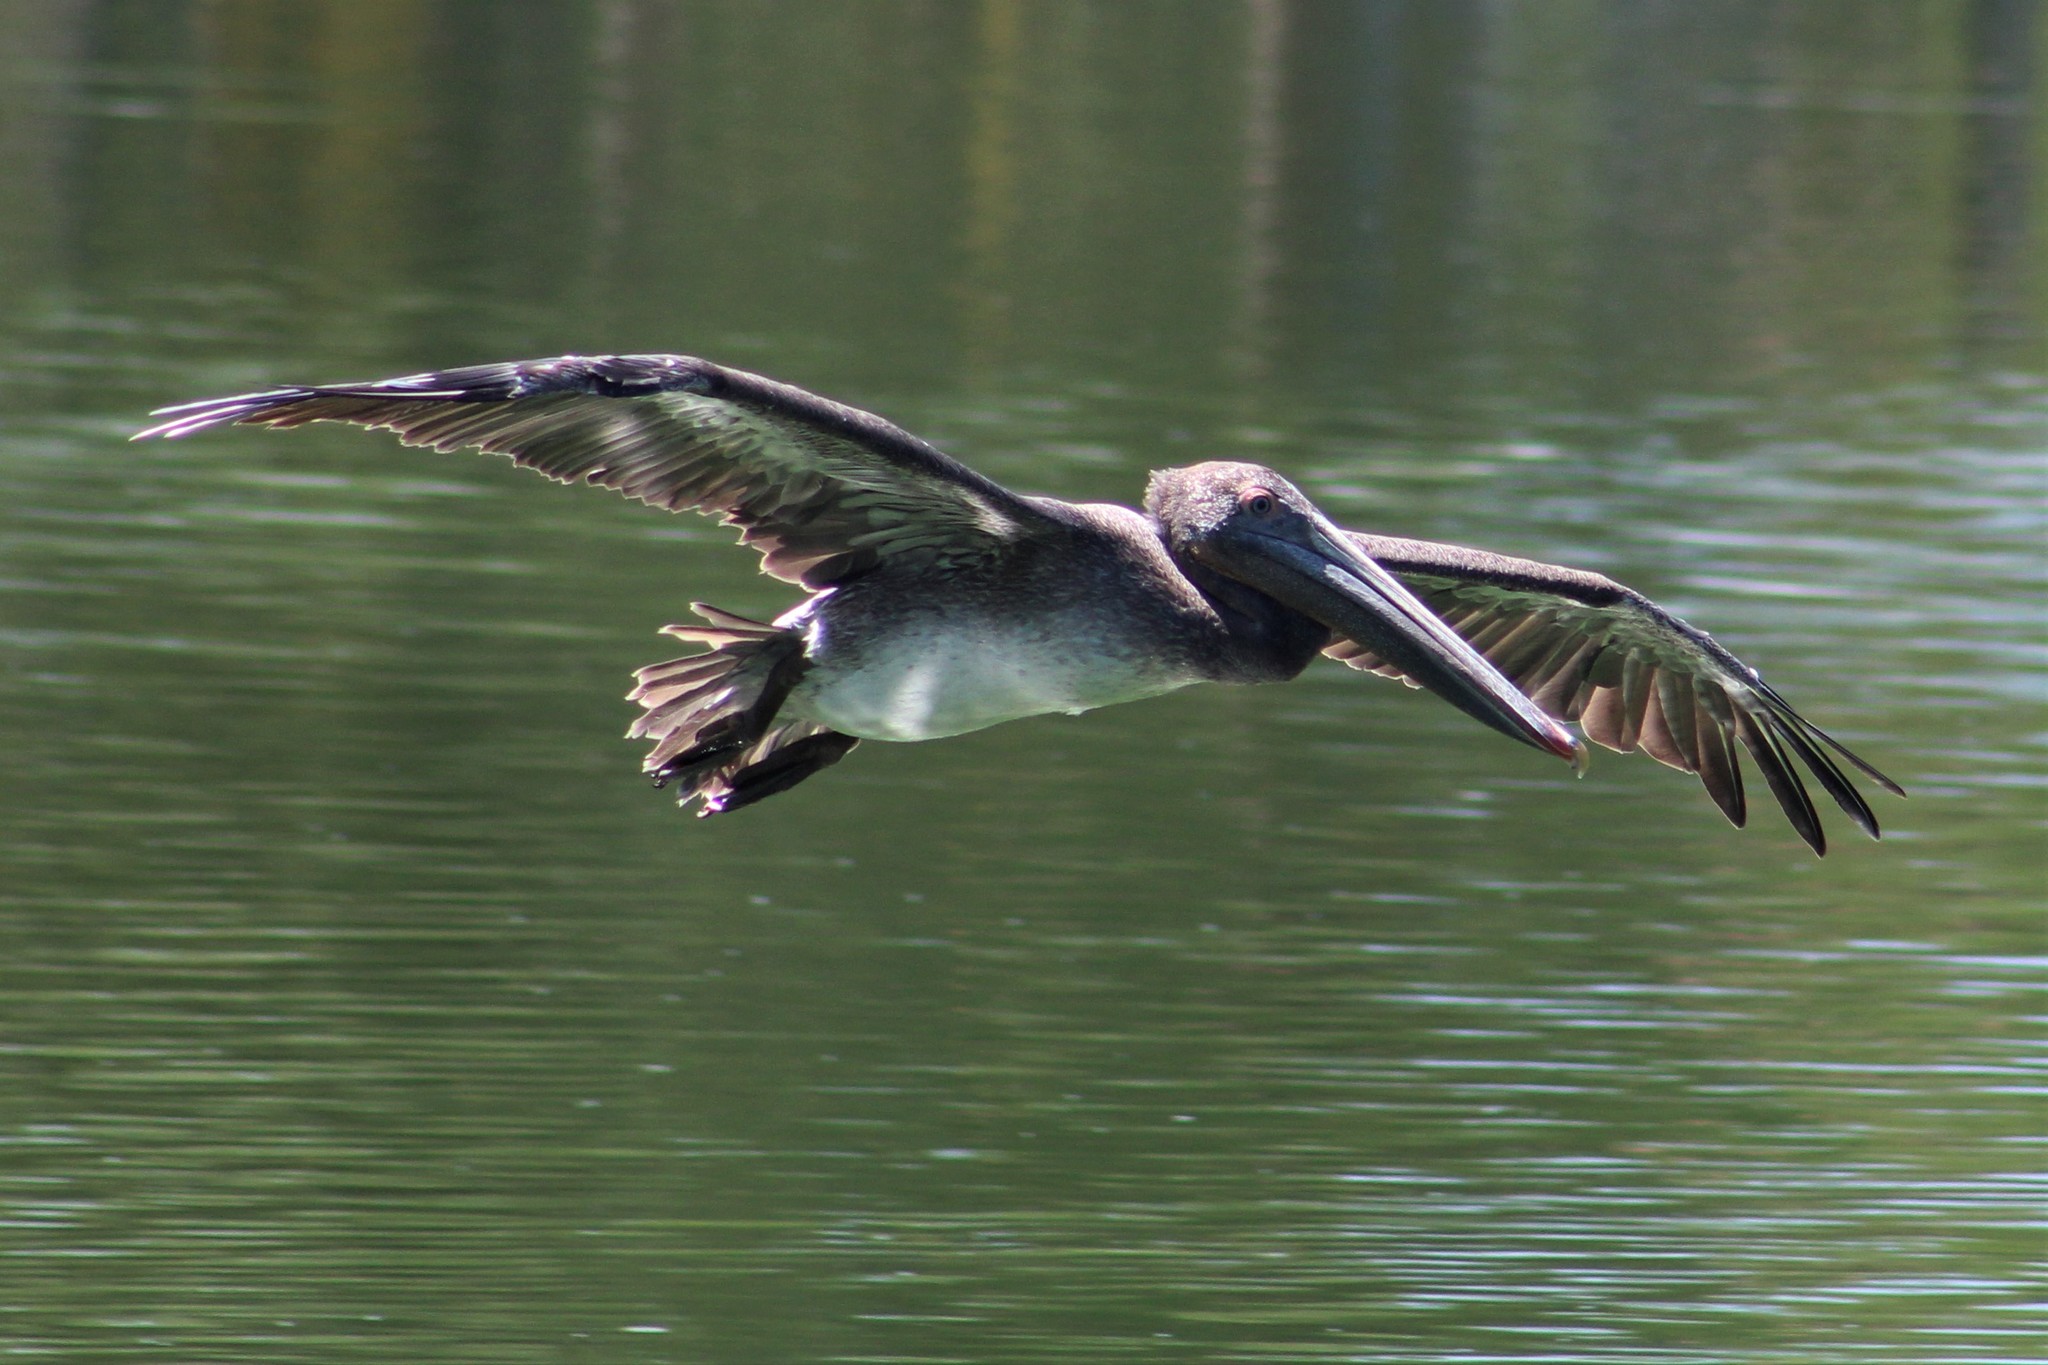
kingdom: Animalia
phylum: Chordata
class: Aves
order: Pelecaniformes
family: Pelecanidae
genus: Pelecanus
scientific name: Pelecanus occidentalis
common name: Brown pelican
